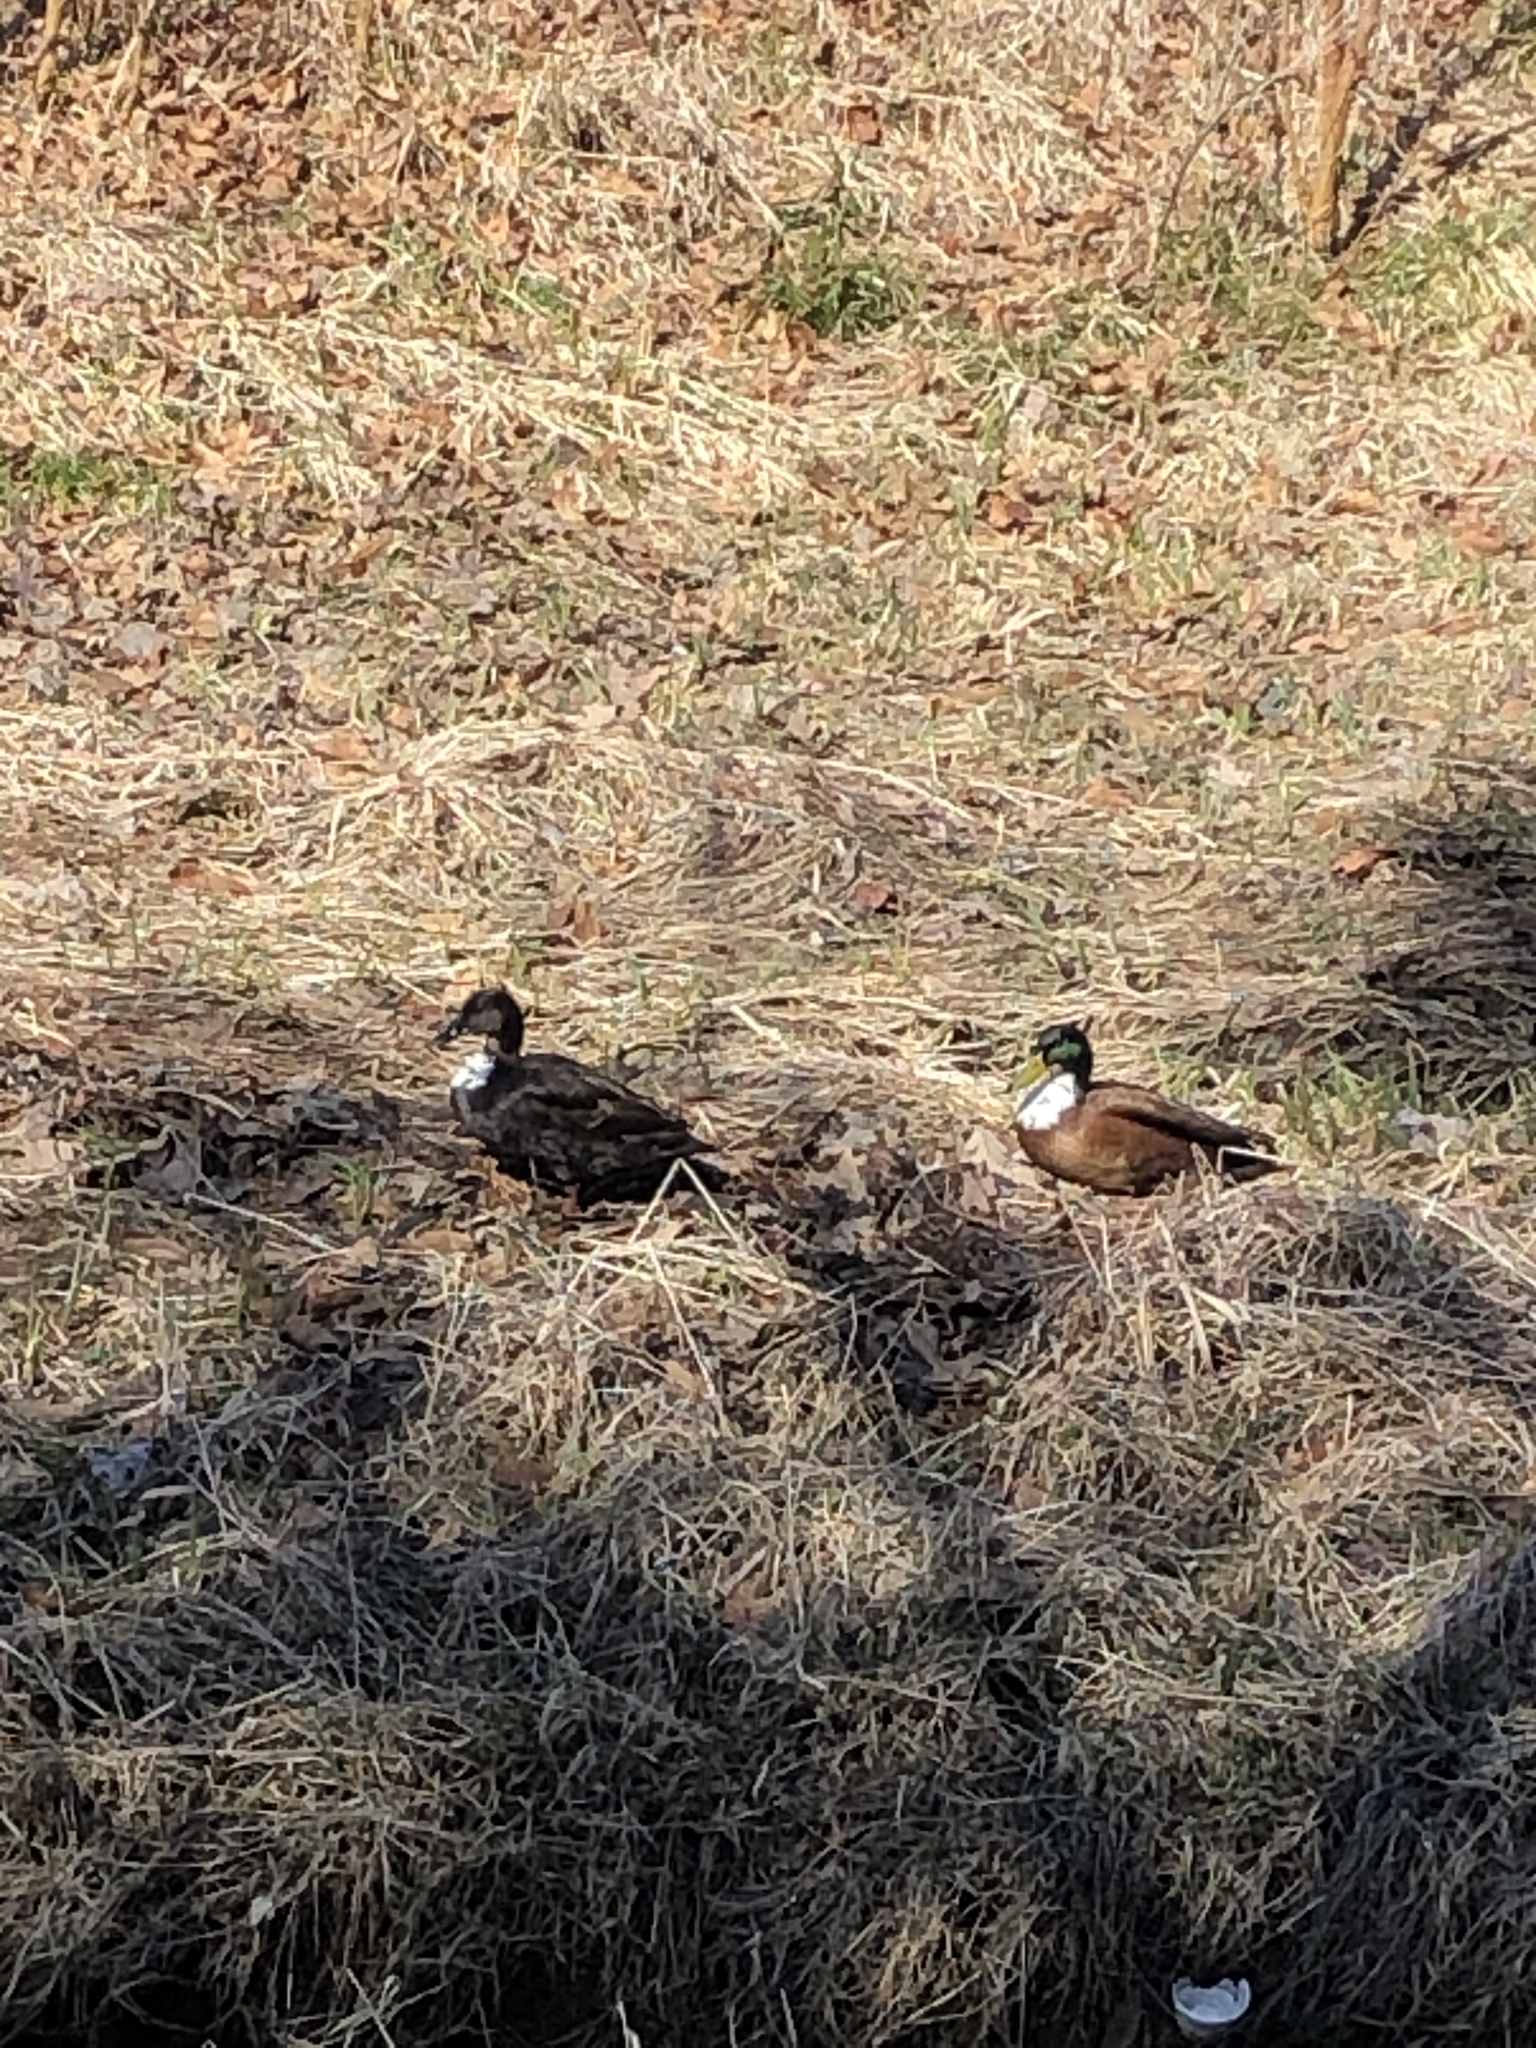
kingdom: Animalia
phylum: Chordata
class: Aves
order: Anseriformes
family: Anatidae
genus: Anas
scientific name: Anas platyrhynchos
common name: Mallard
